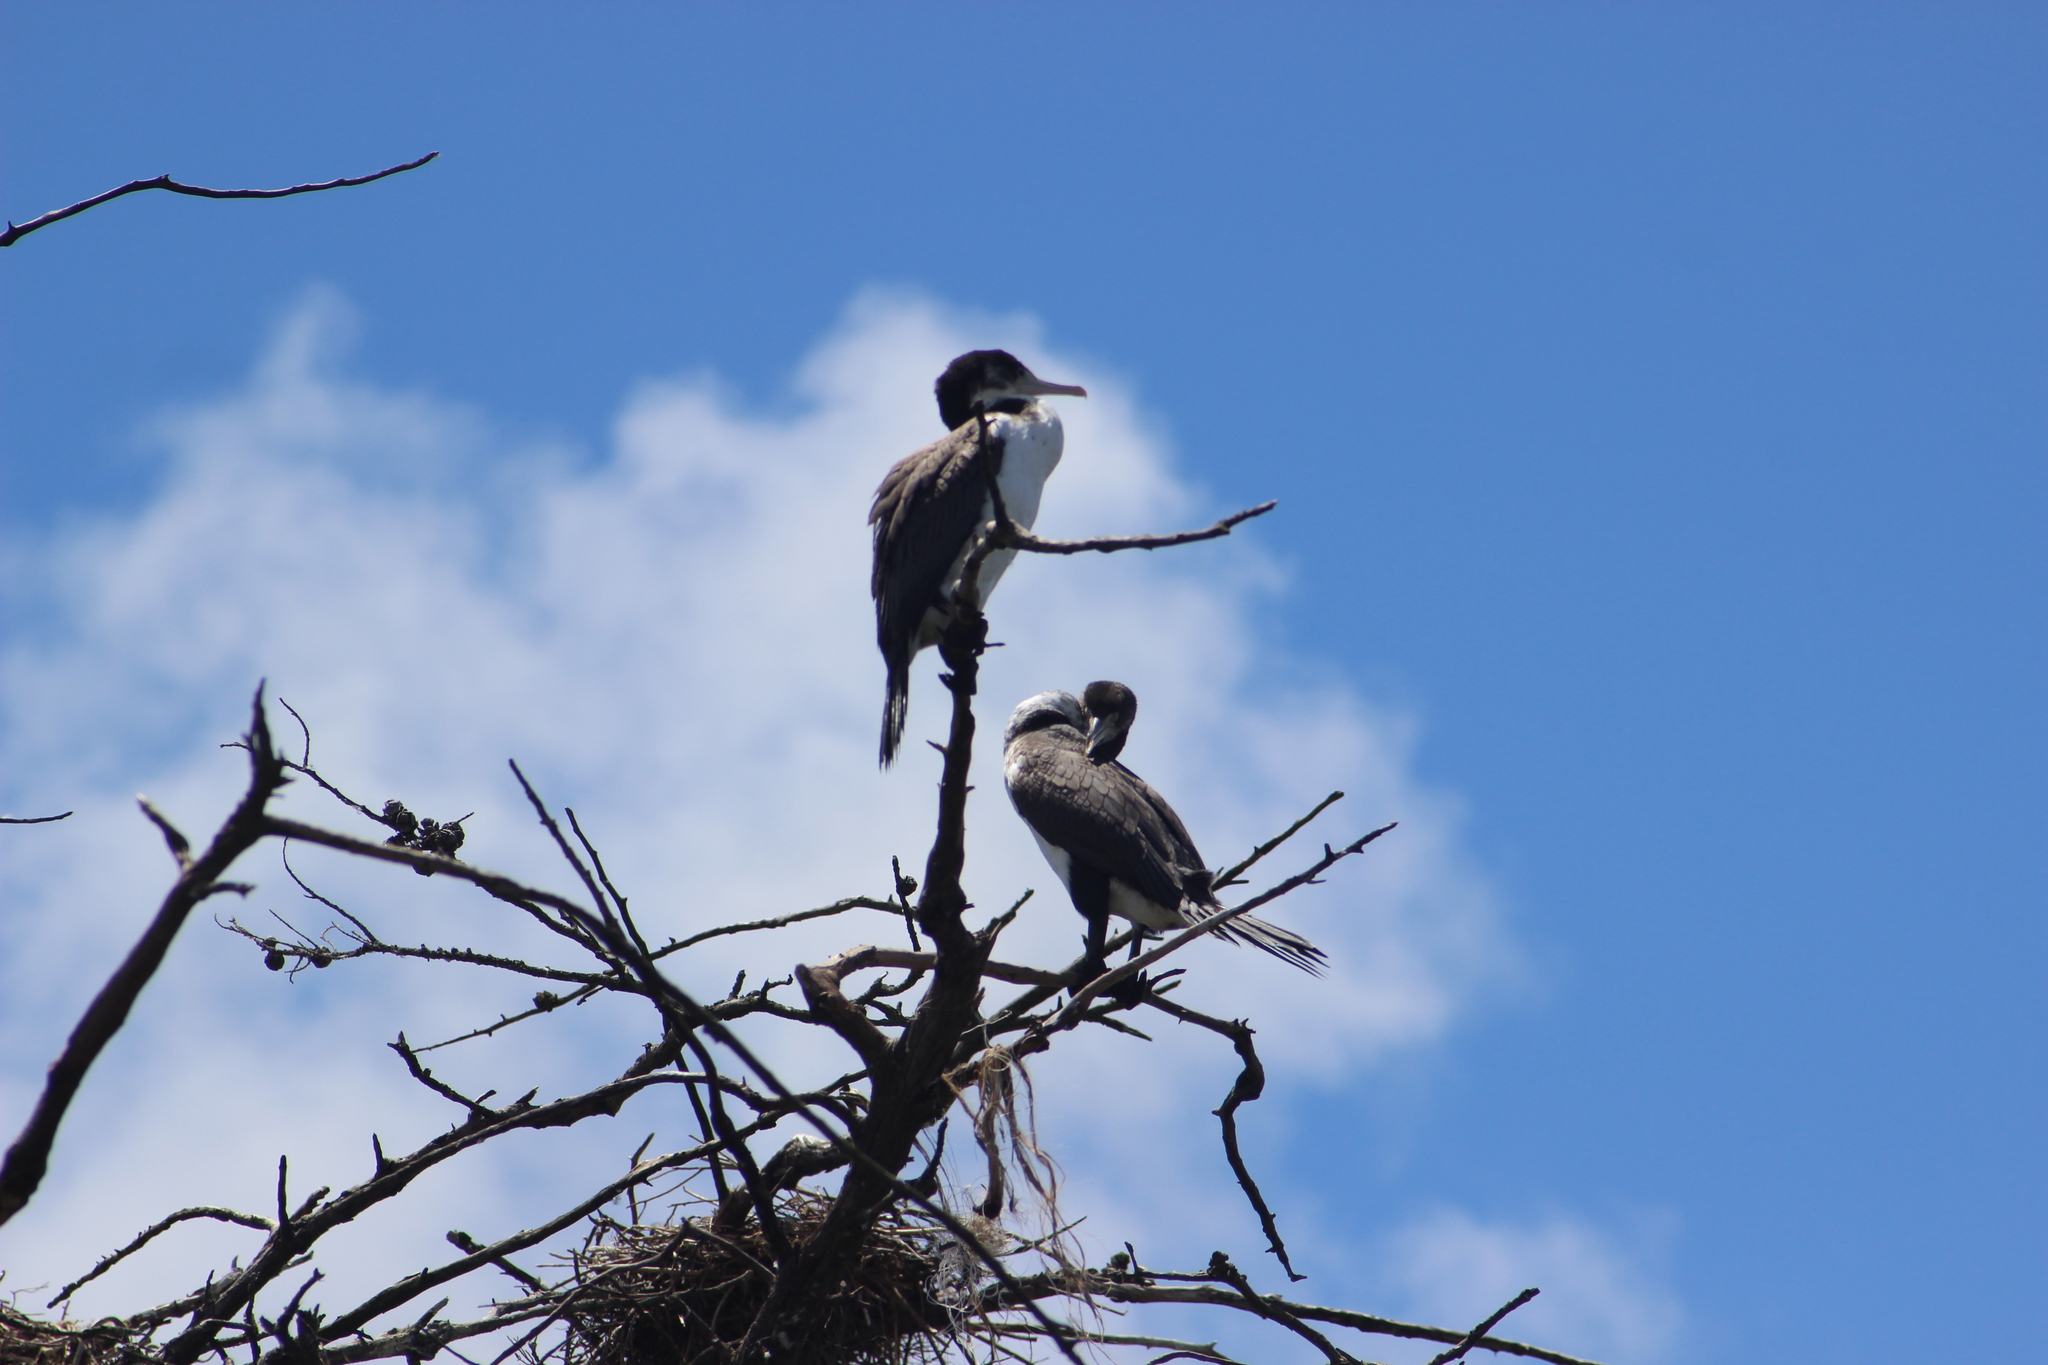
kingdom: Animalia
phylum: Chordata
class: Aves
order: Suliformes
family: Phalacrocoracidae
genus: Phalacrocorax
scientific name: Phalacrocorax varius
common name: Pied cormorant
